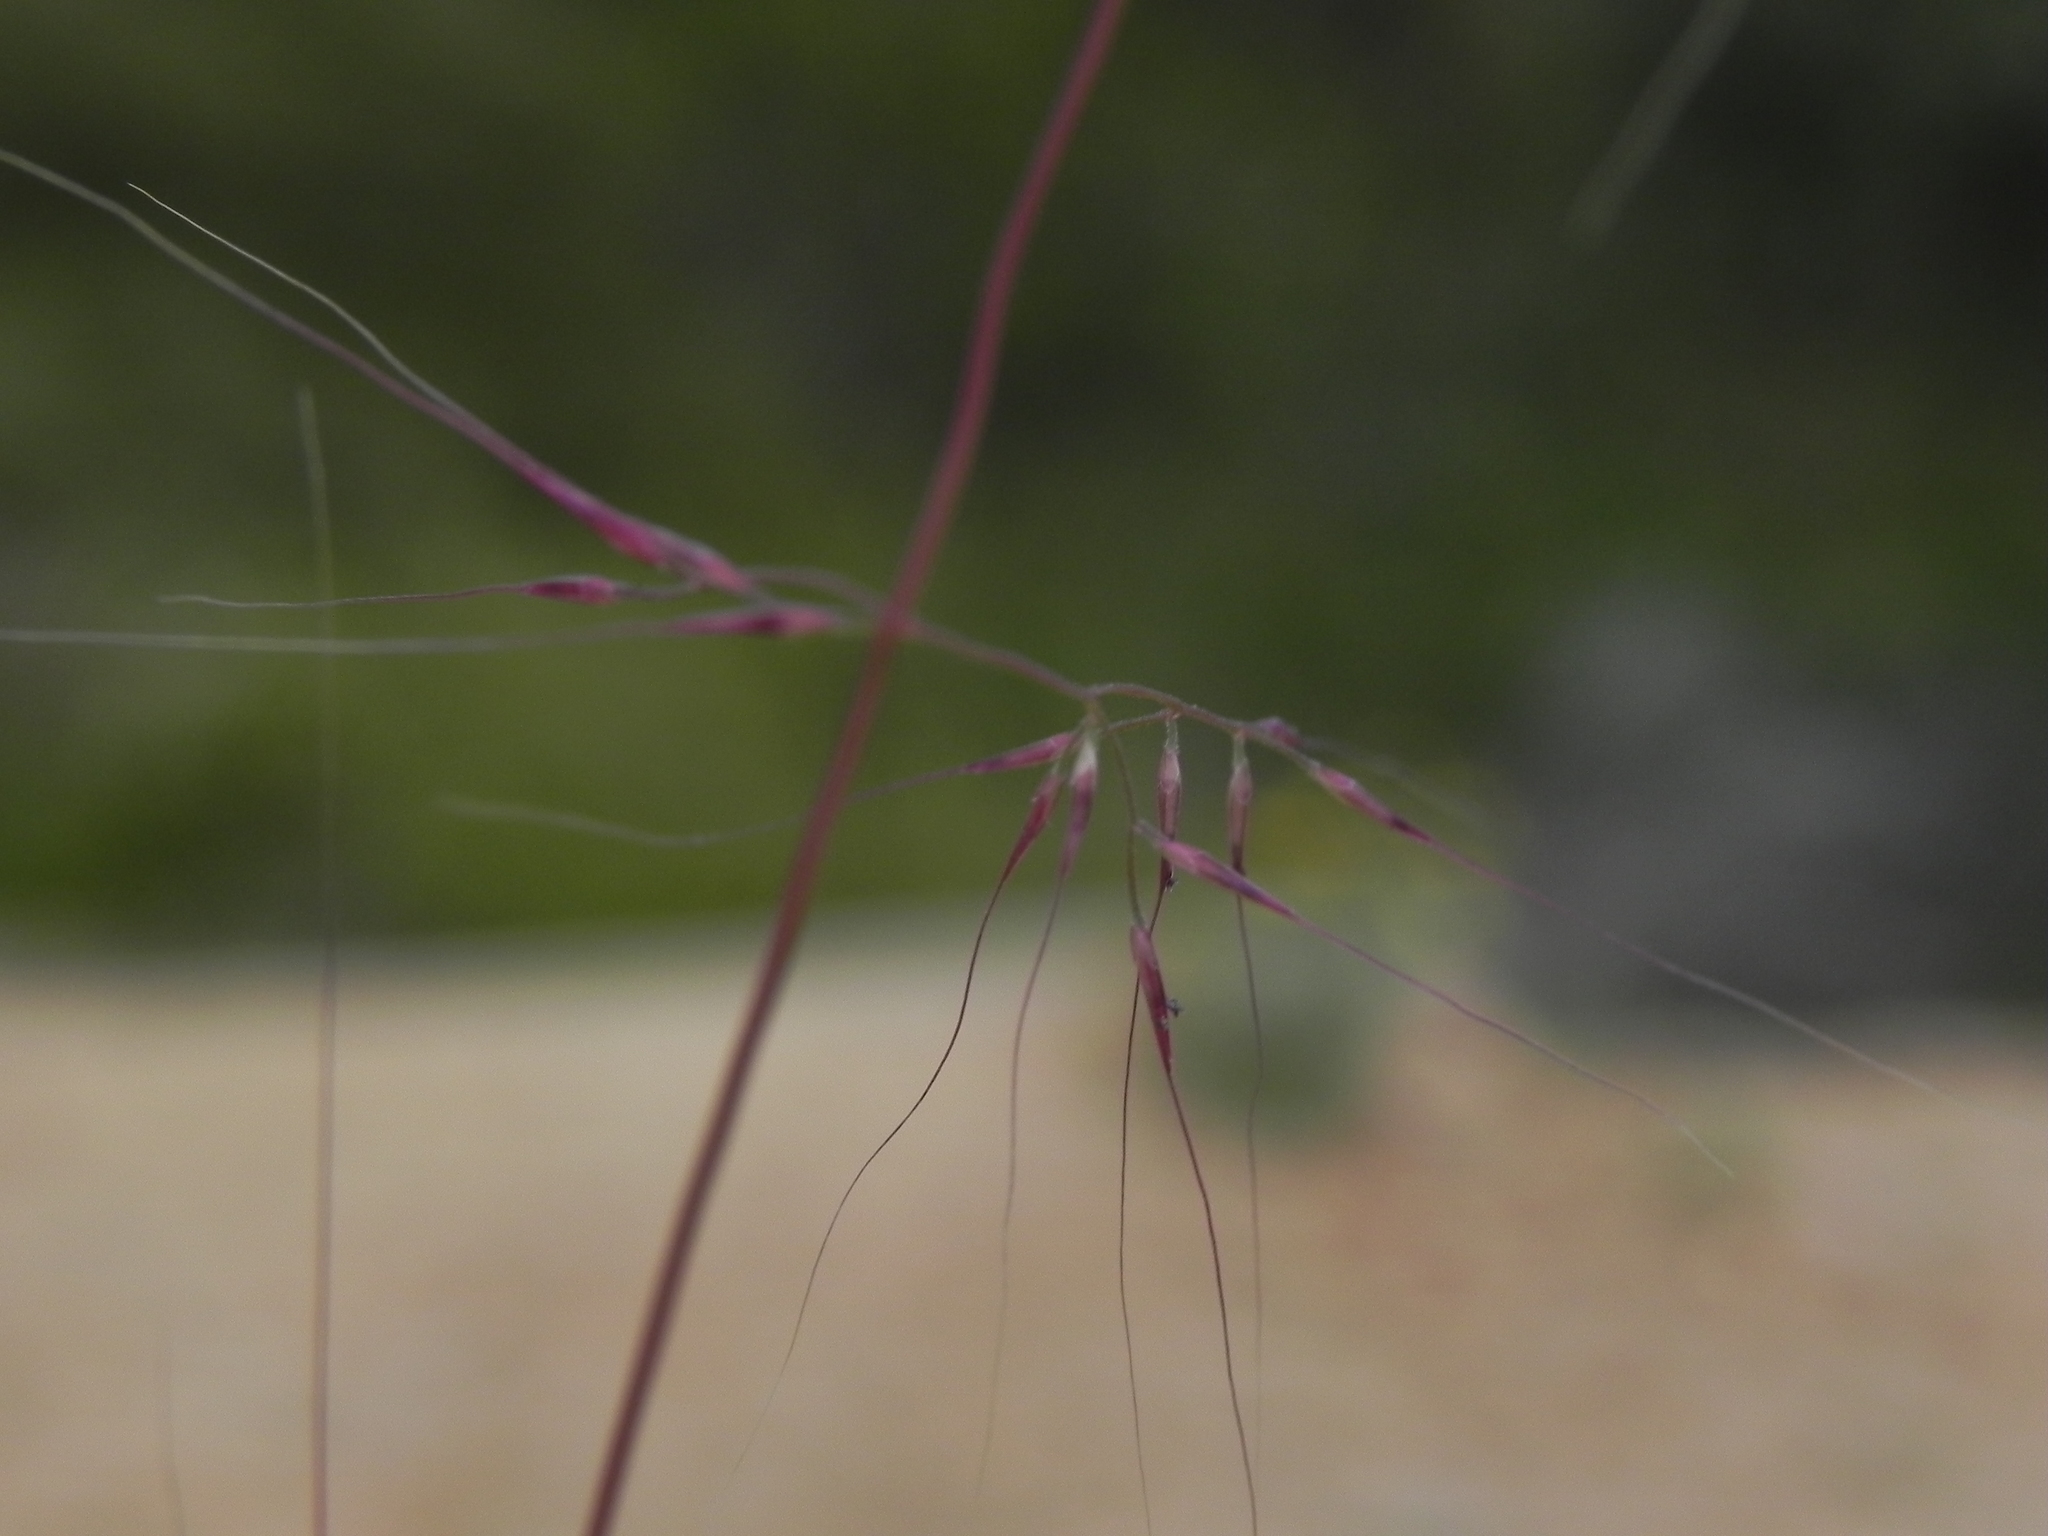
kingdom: Plantae
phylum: Tracheophyta
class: Liliopsida
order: Poales
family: Poaceae
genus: Muhlenbergia
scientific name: Muhlenbergia microsperma
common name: Littleseed muhly
